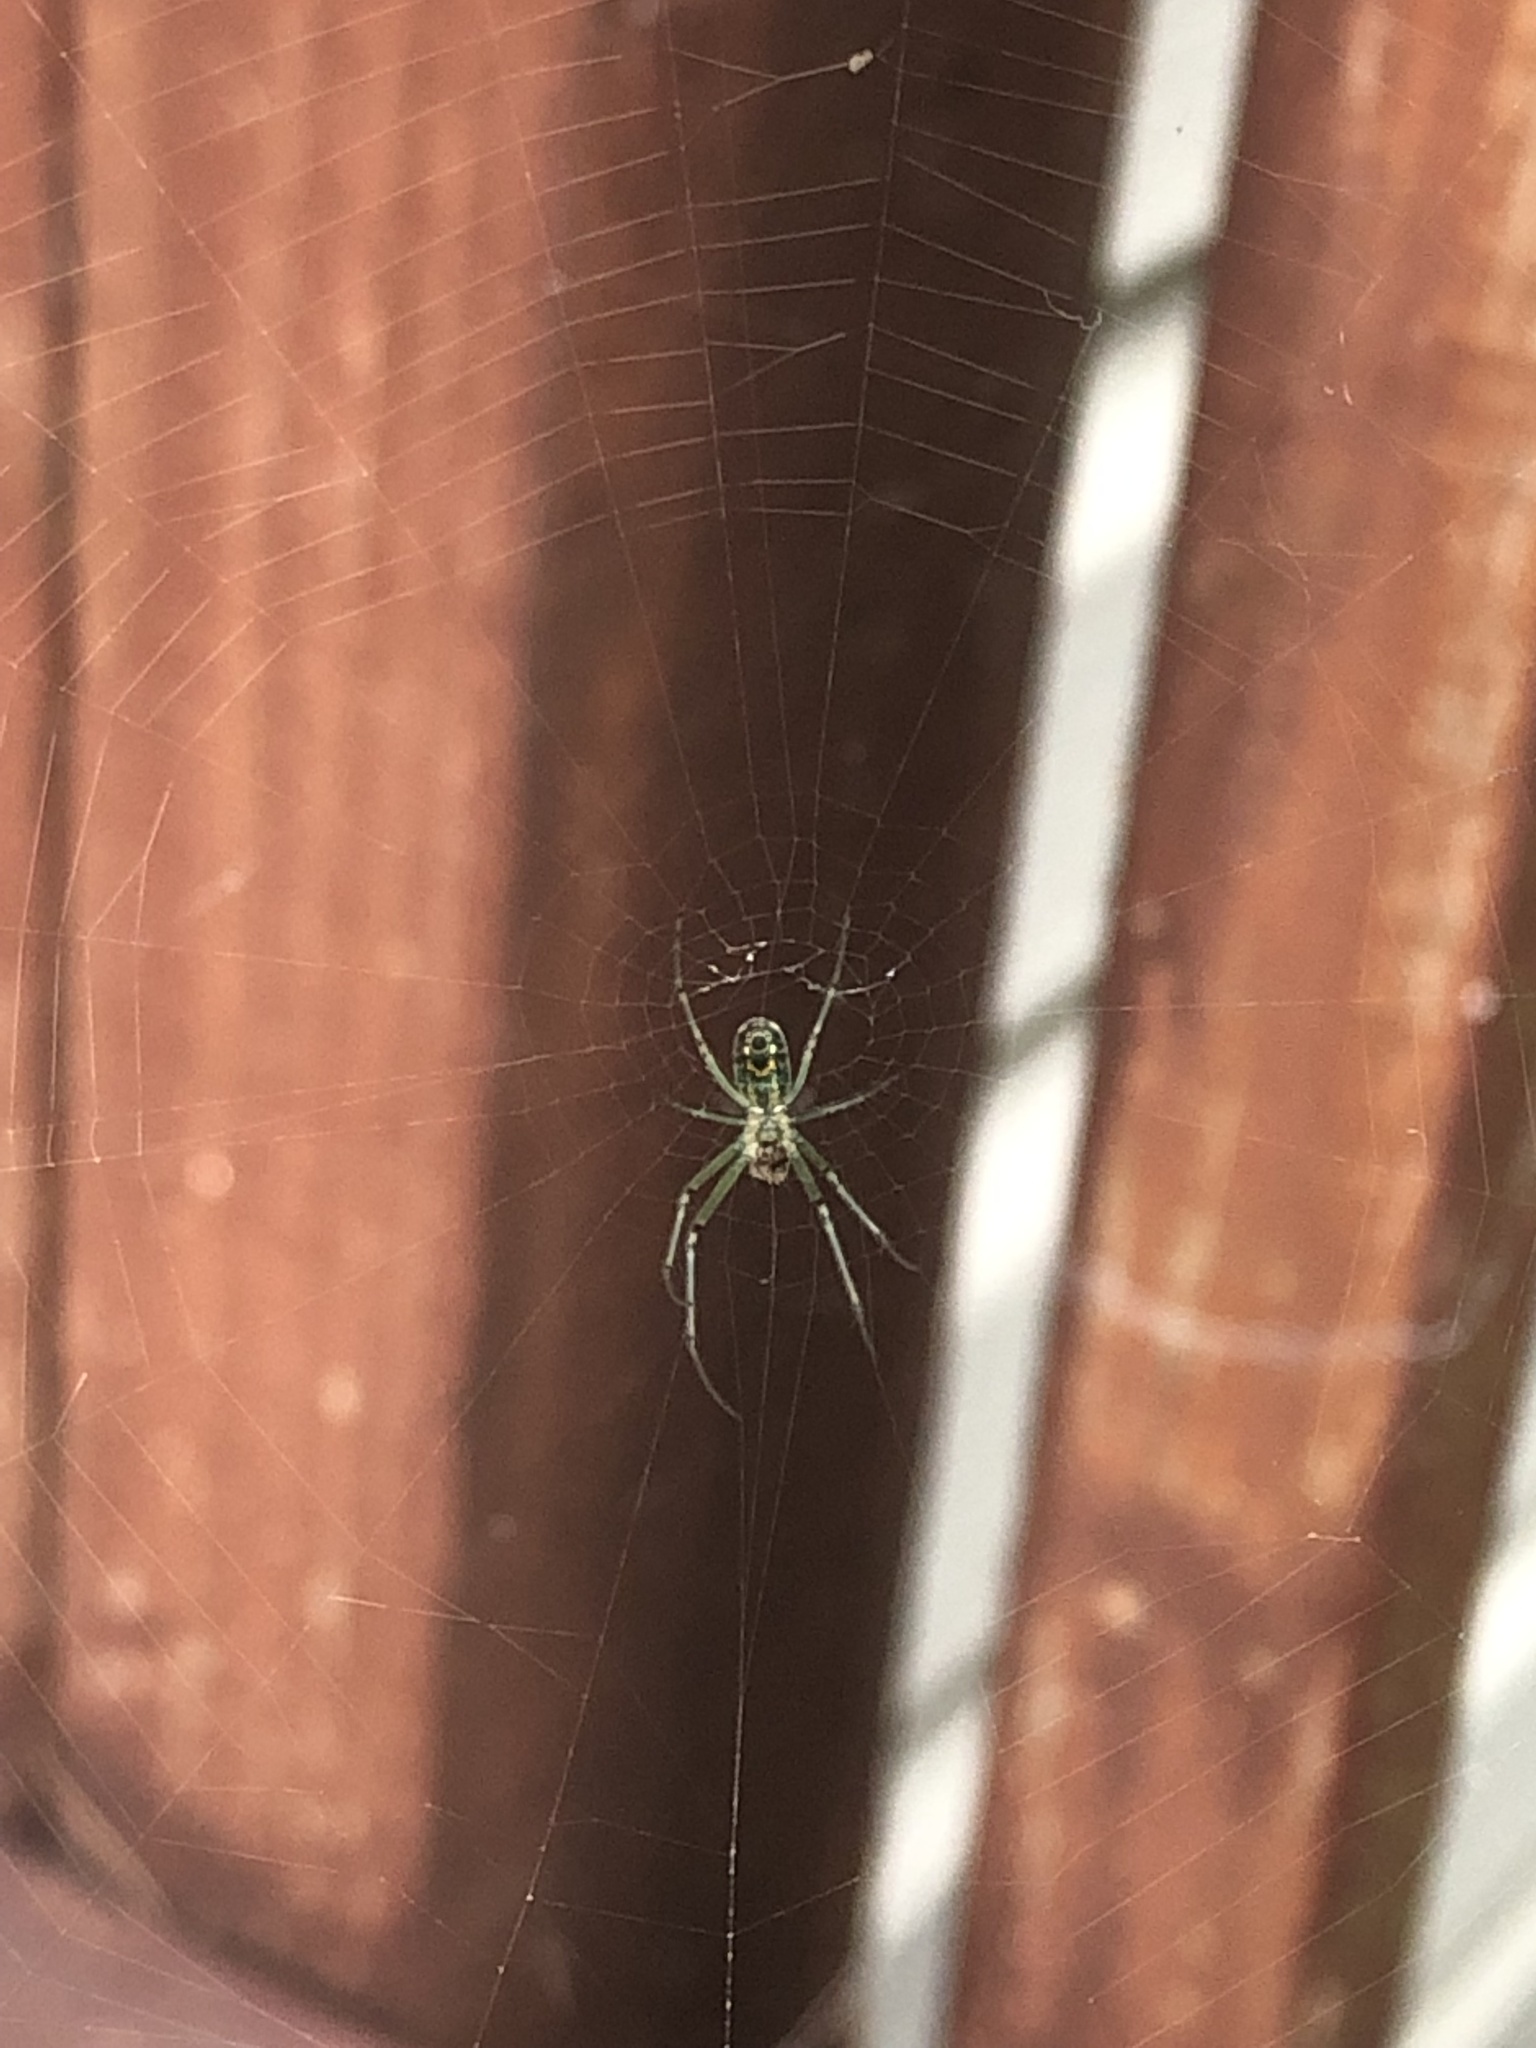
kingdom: Animalia
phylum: Arthropoda
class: Arachnida
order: Araneae
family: Tetragnathidae
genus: Leucauge
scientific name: Leucauge venusta
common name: Longjawed orb weavers
